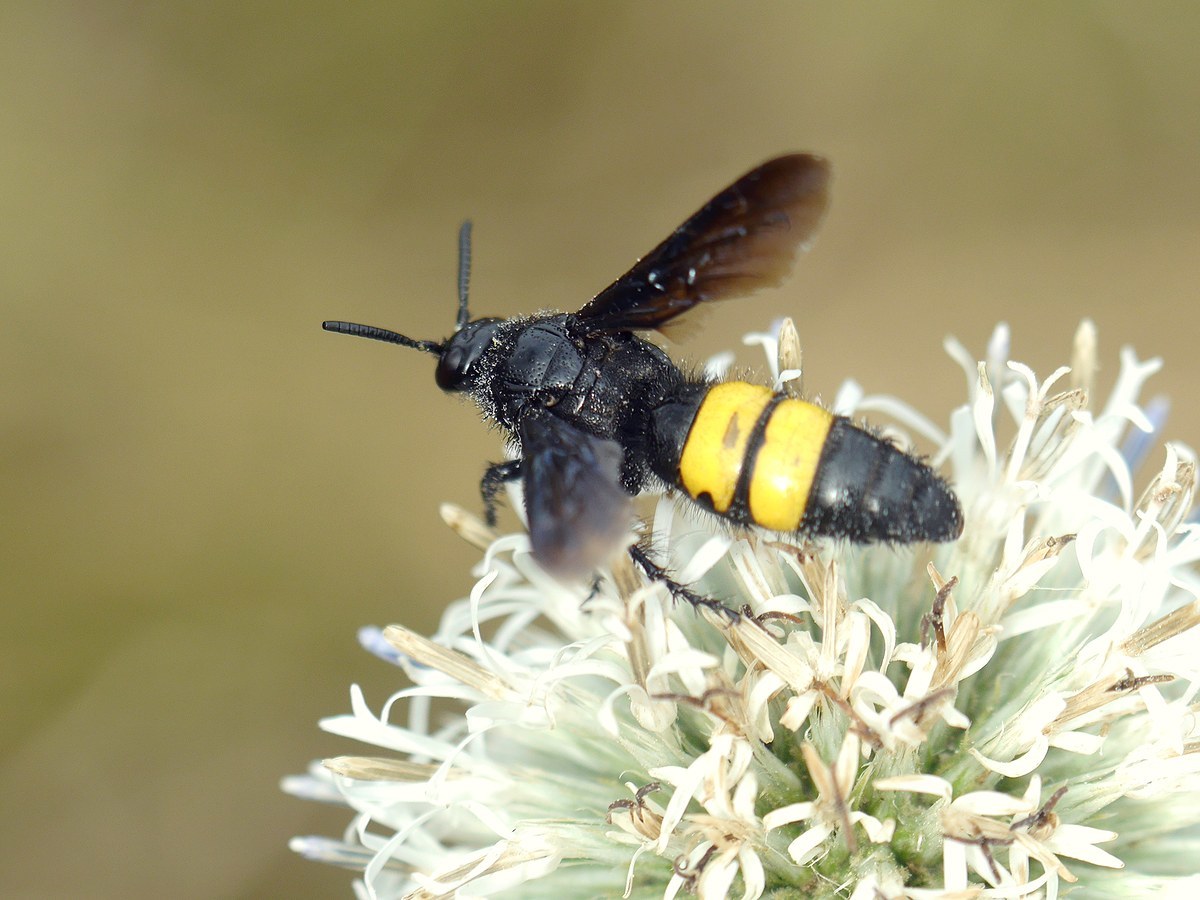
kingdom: Animalia
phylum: Arthropoda
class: Insecta
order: Hymenoptera
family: Scoliidae
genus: Scolia
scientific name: Scolia hirta
